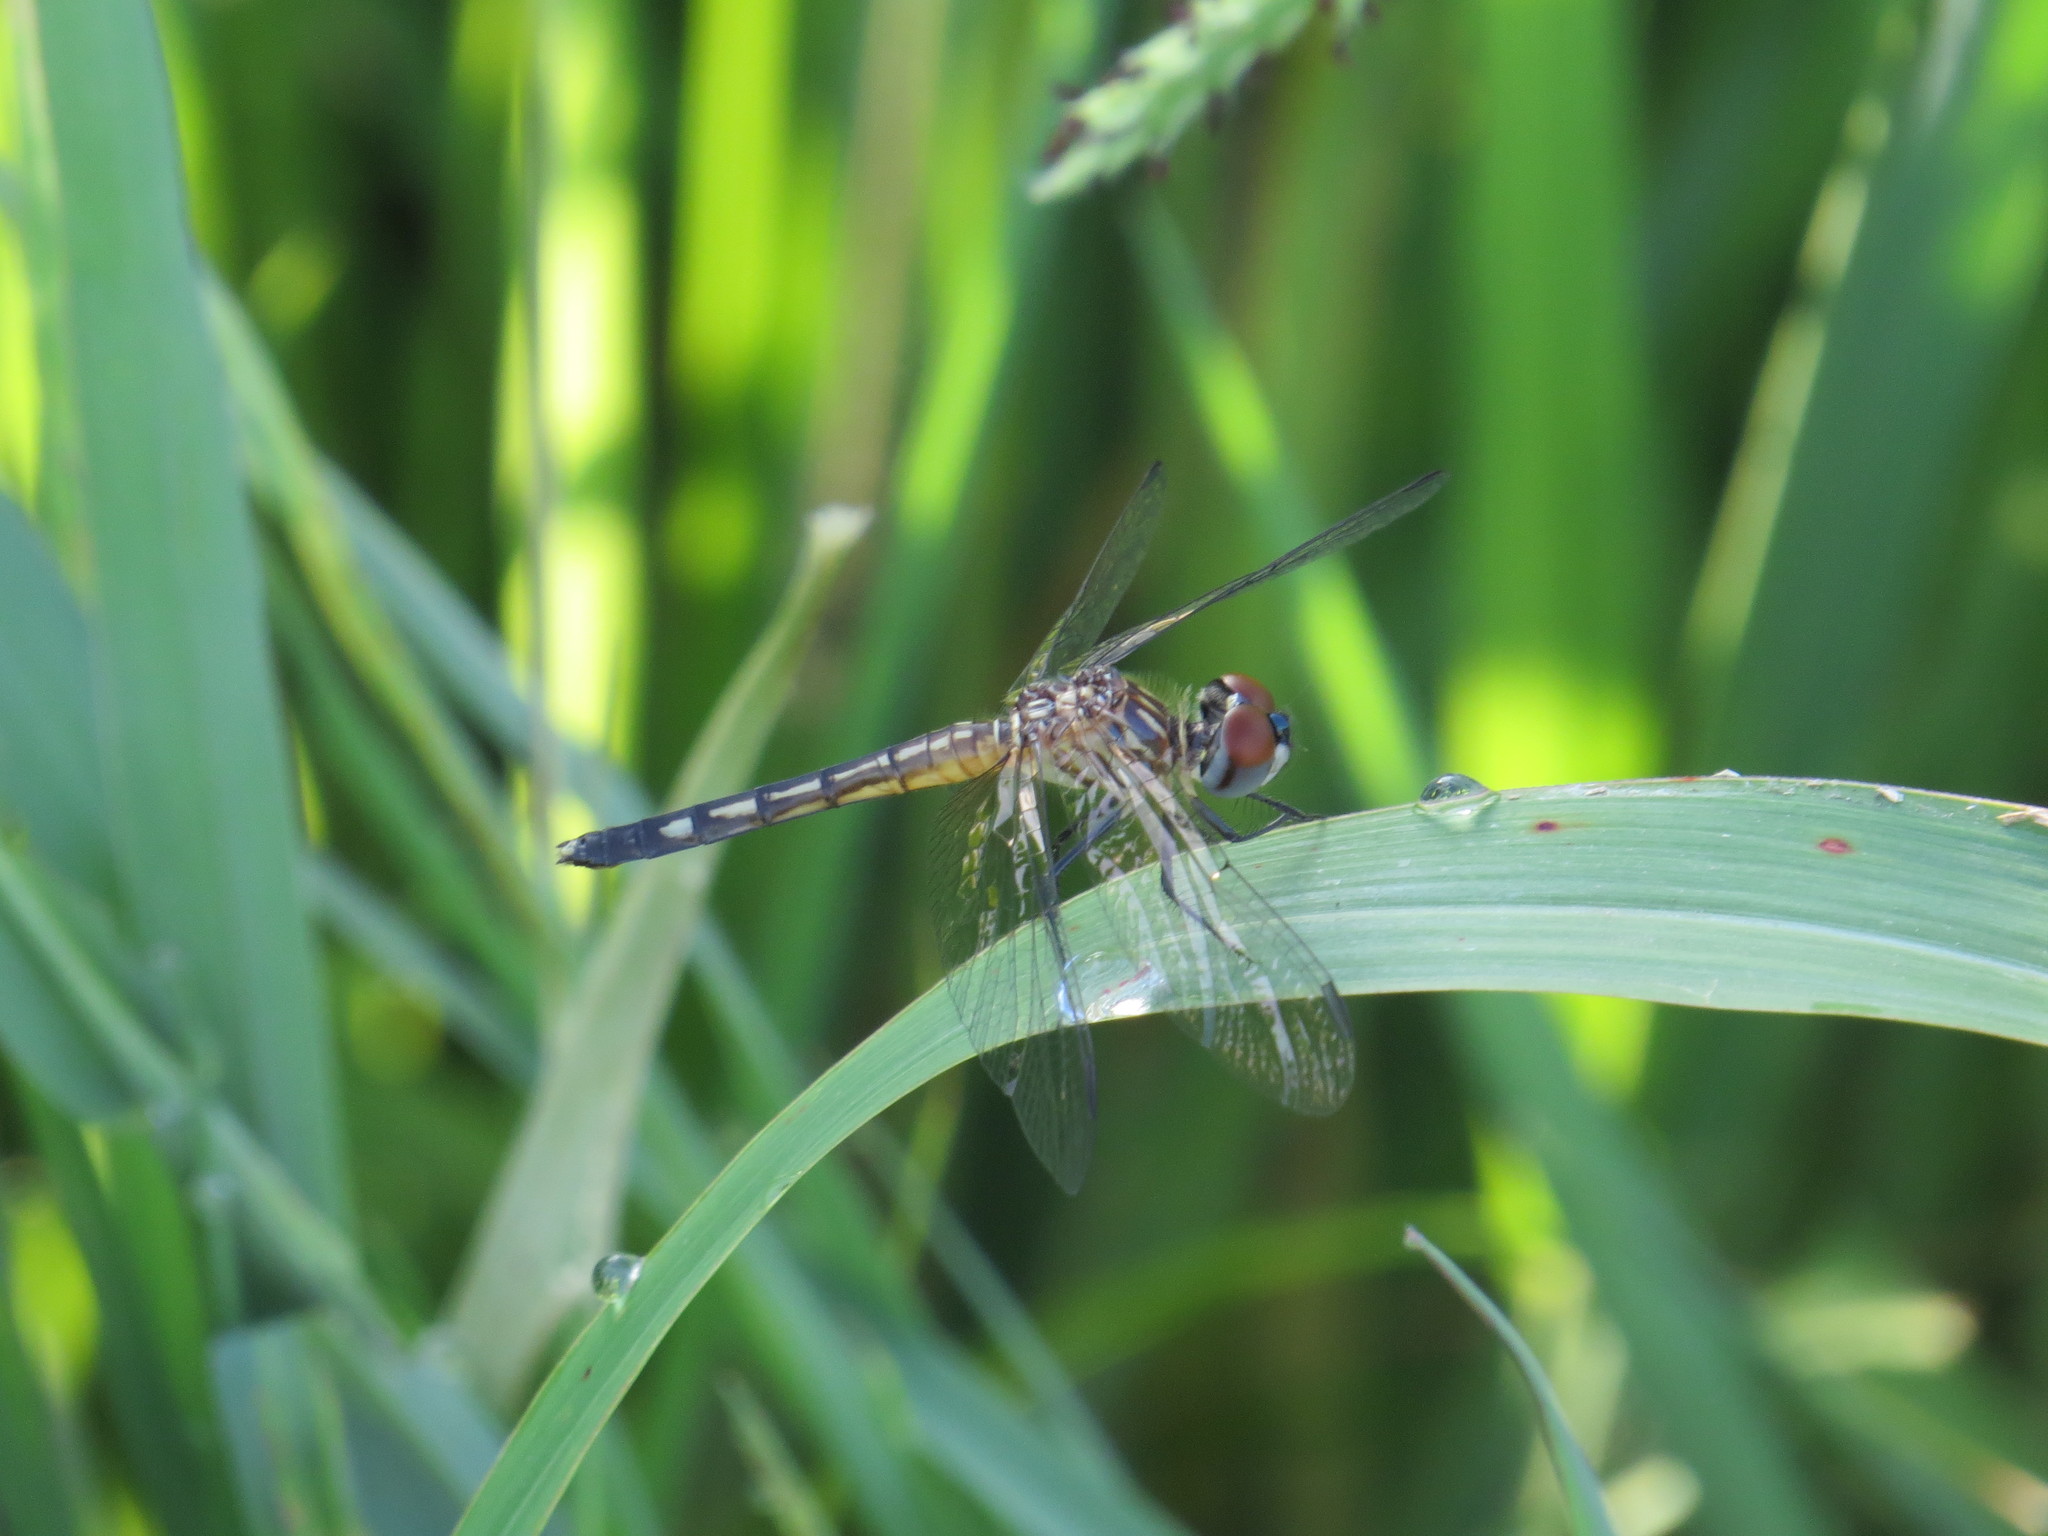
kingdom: Animalia
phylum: Arthropoda
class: Insecta
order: Odonata
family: Libellulidae
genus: Pachydiplax
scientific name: Pachydiplax longipennis
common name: Blue dasher
